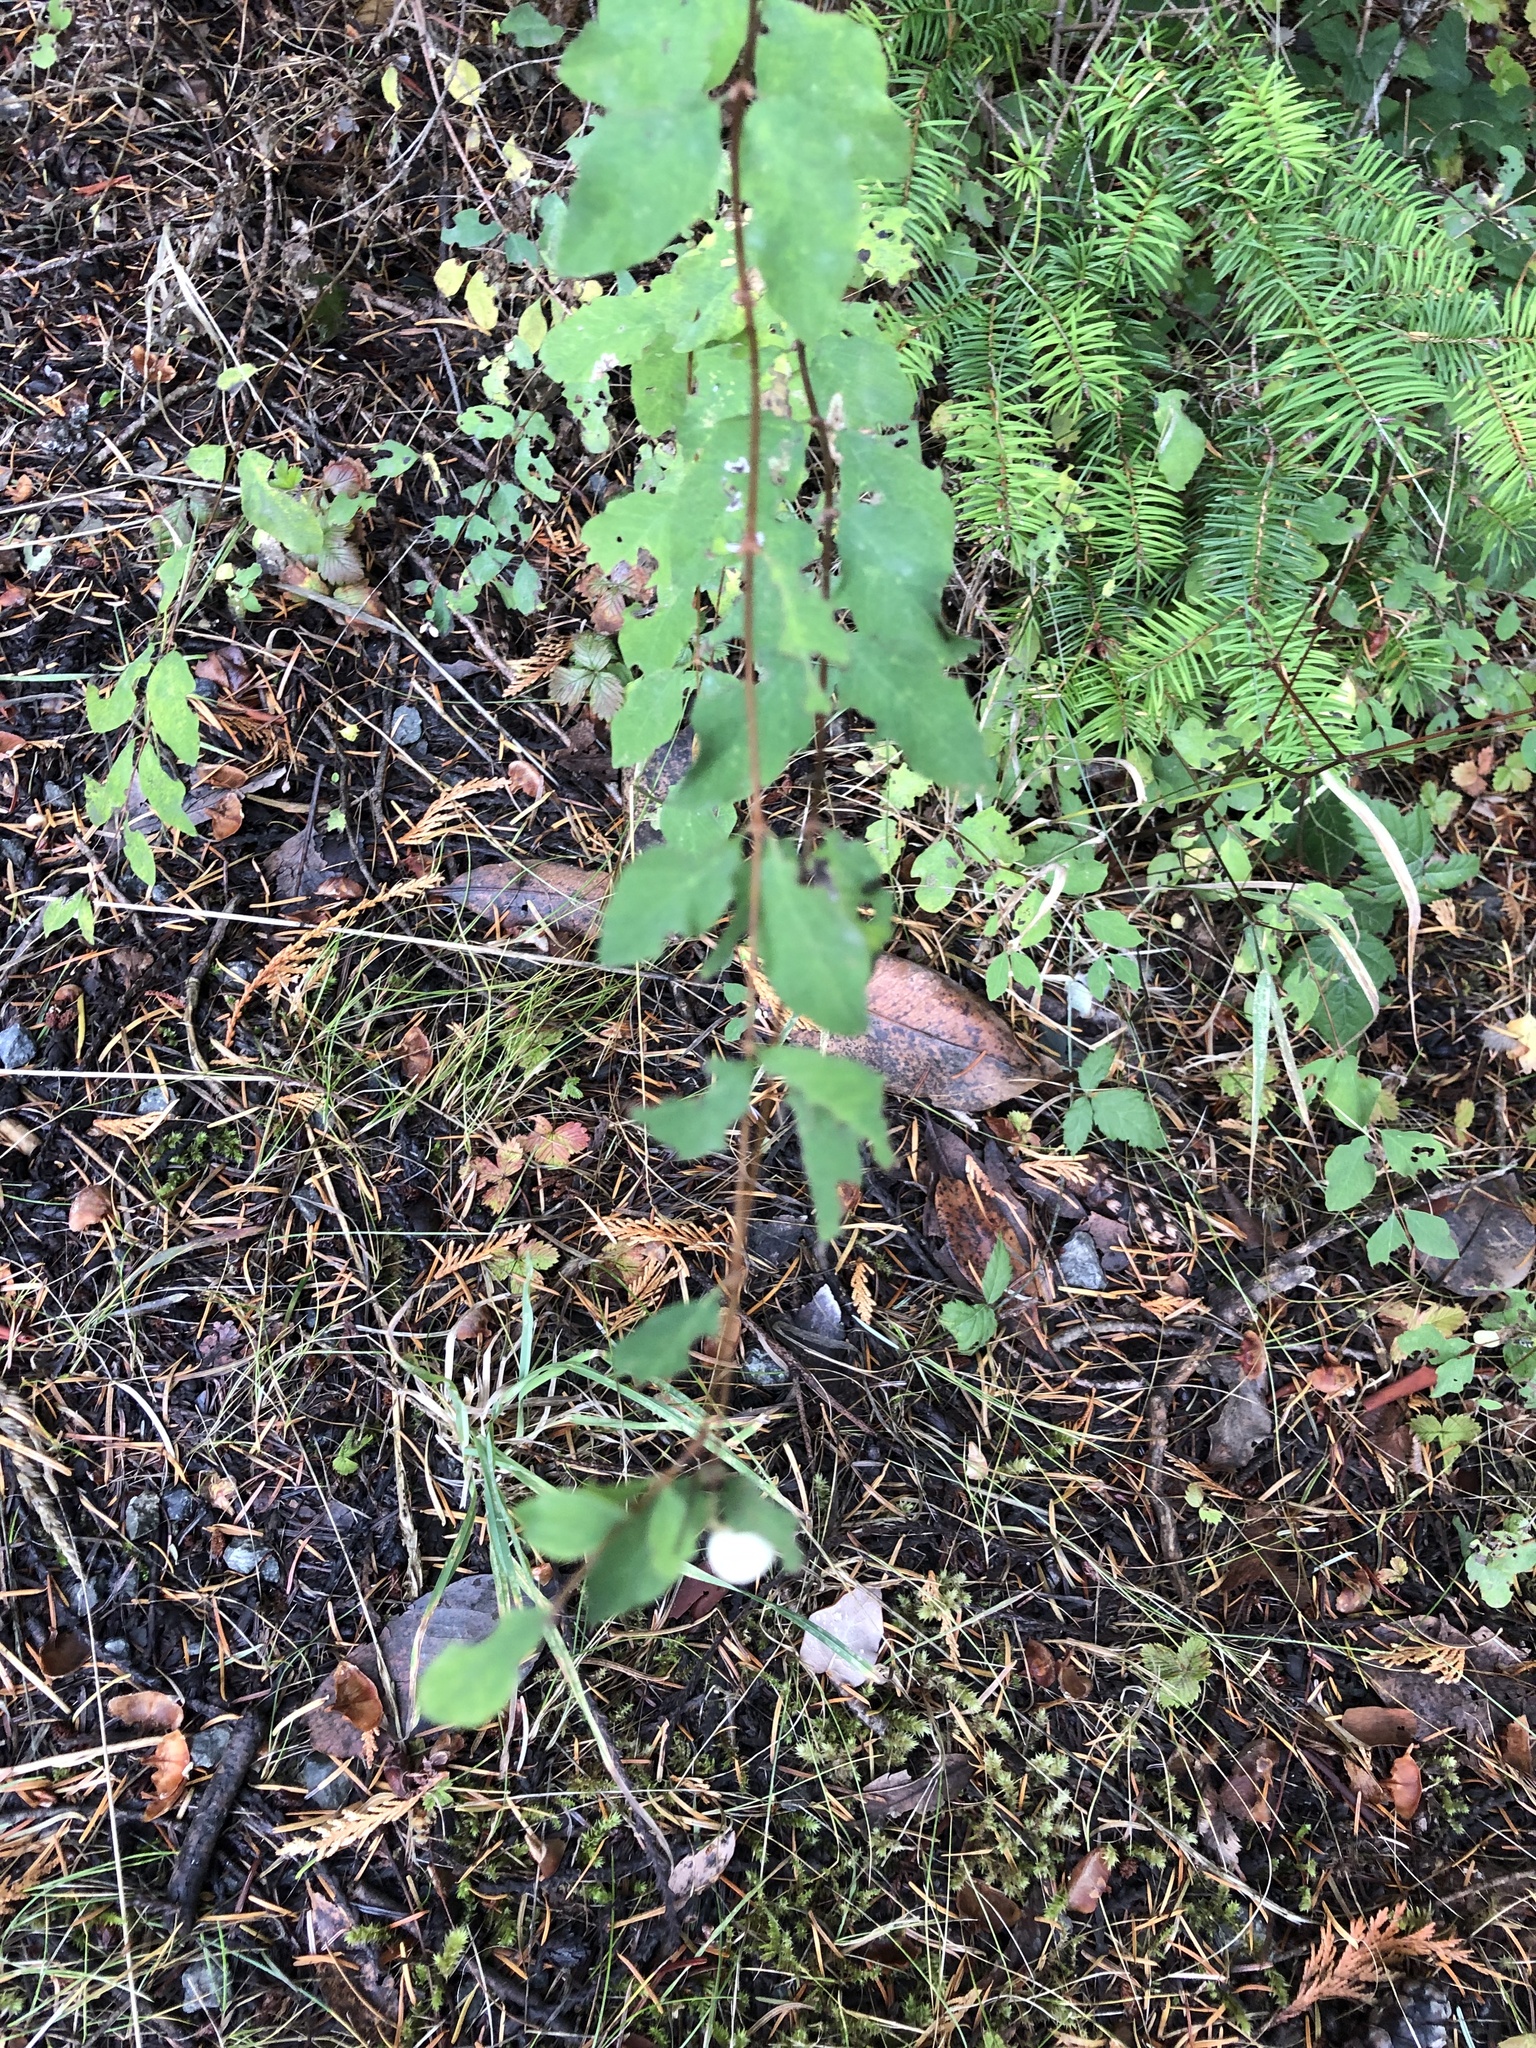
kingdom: Plantae
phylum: Tracheophyta
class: Magnoliopsida
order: Dipsacales
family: Caprifoliaceae
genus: Symphoricarpos
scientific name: Symphoricarpos albus
